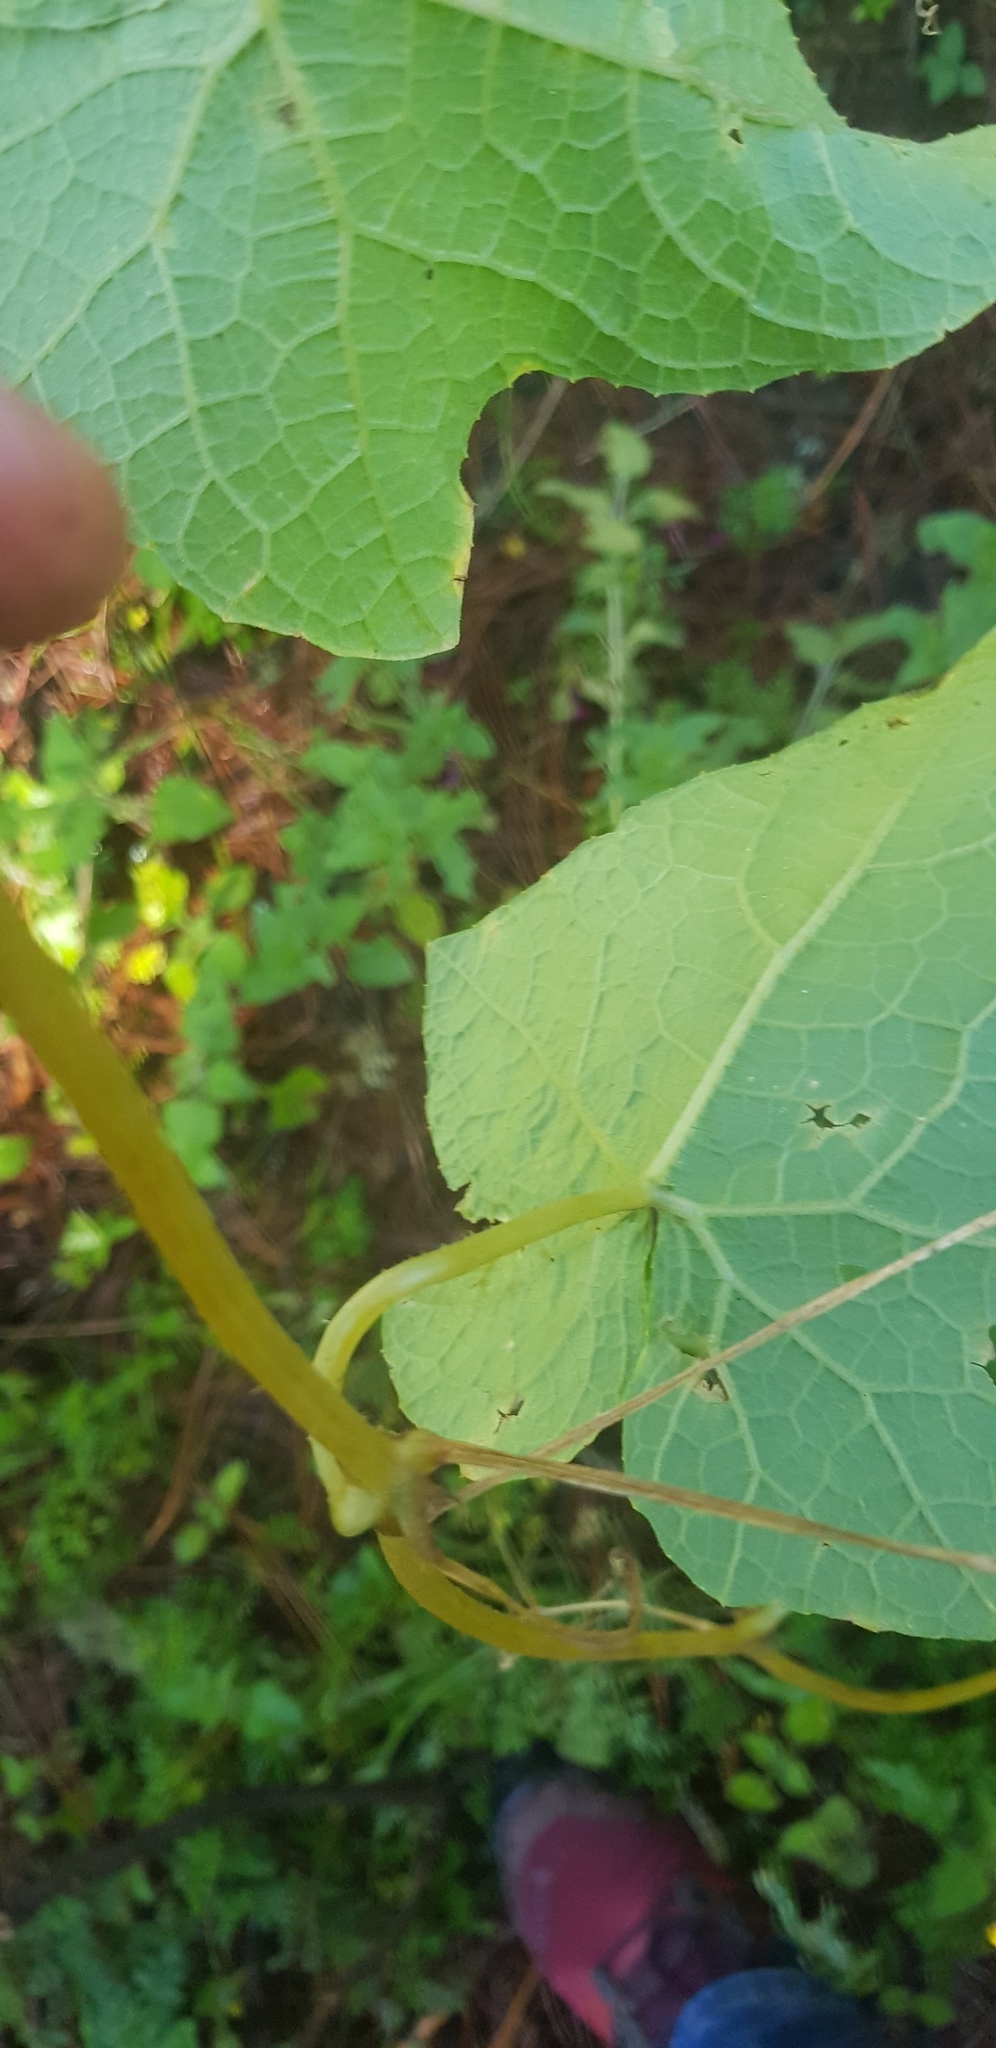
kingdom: Plantae
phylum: Tracheophyta
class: Magnoliopsida
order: Cucurbitales
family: Cucurbitaceae
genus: Microsechium
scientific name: Microsechium palmatum
